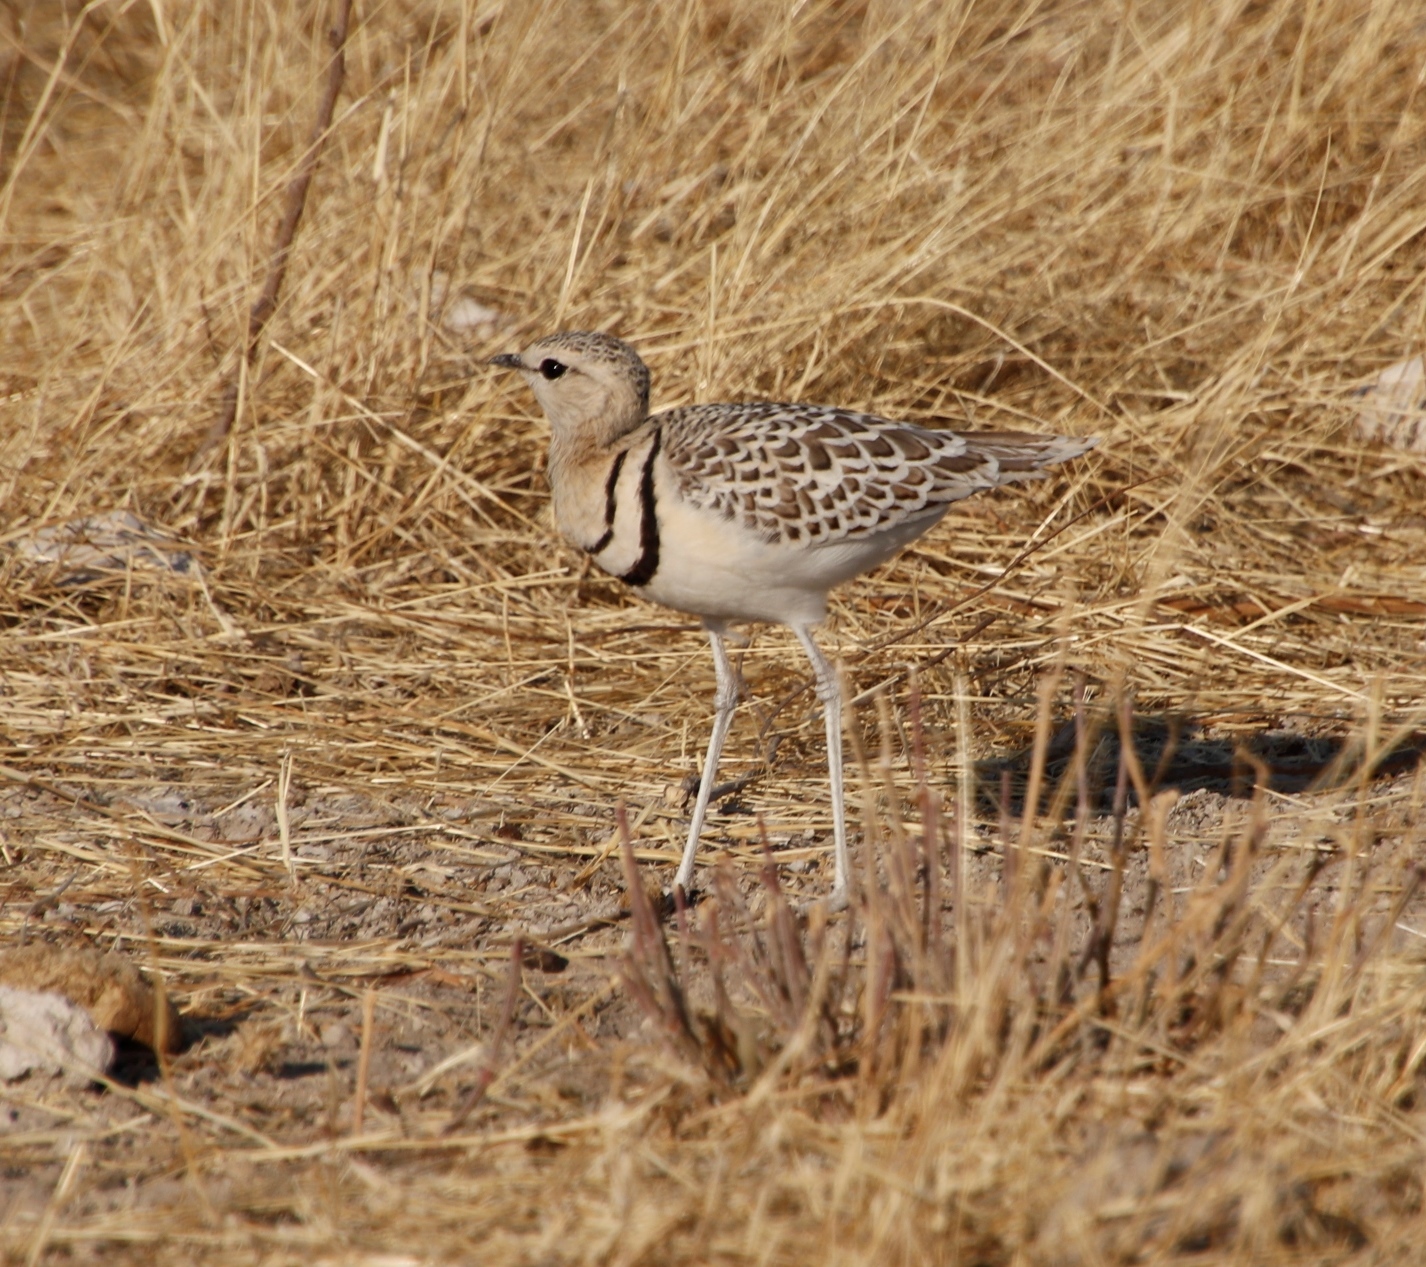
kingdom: Animalia
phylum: Chordata
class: Aves
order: Charadriiformes
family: Glareolidae
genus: Rhinoptilus
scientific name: Rhinoptilus africanus
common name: Double-banded courser
